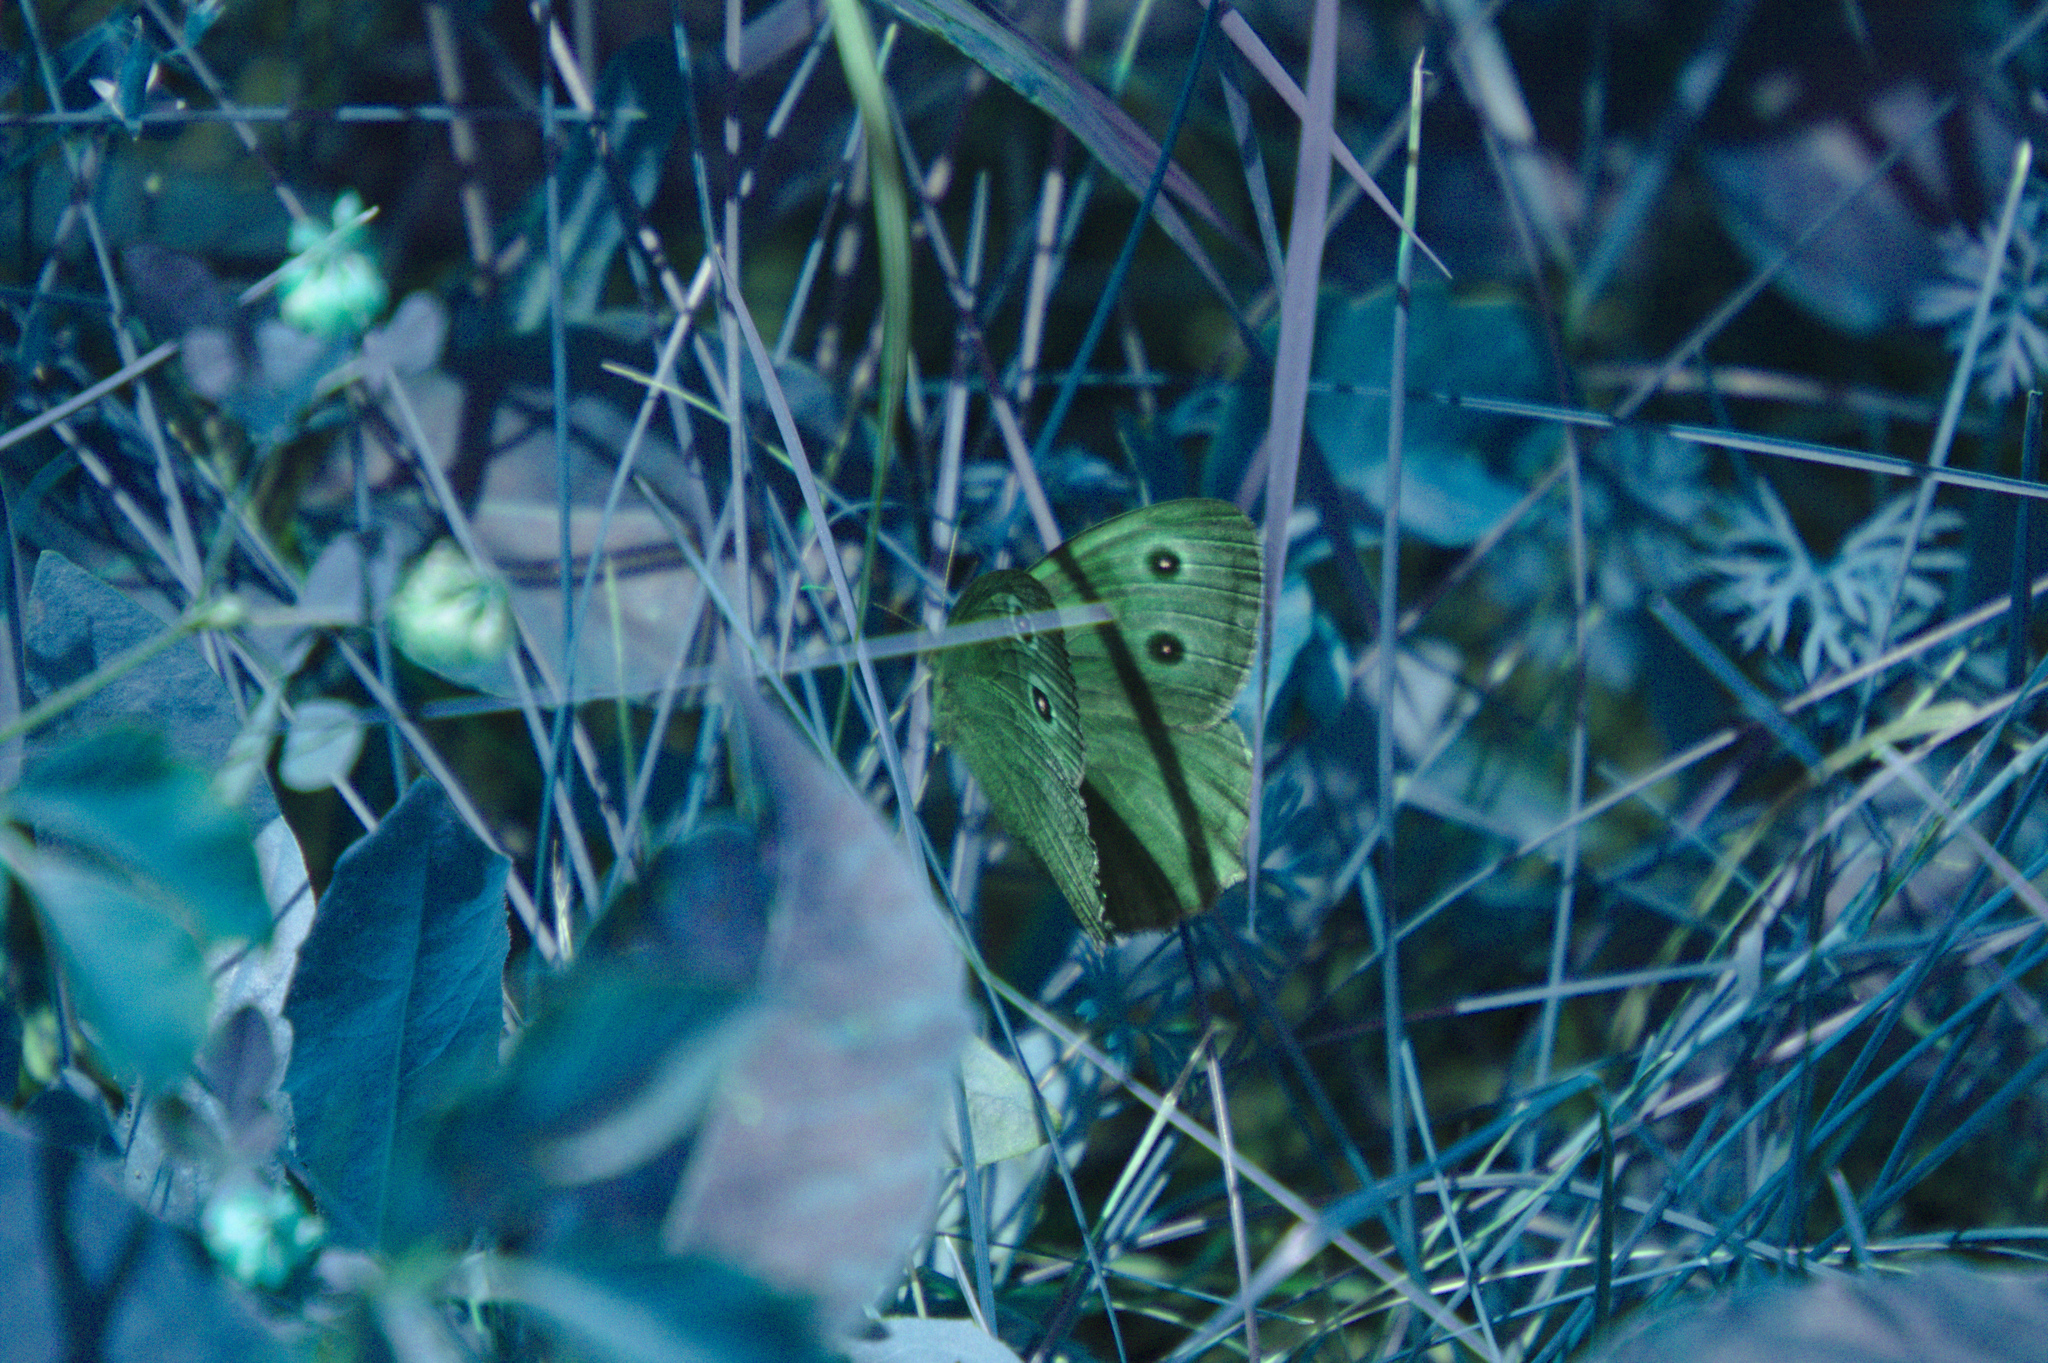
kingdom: Animalia
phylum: Arthropoda
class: Insecta
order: Lepidoptera
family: Nymphalidae
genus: Cercyonis
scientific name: Cercyonis pegala
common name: Common wood-nymph
